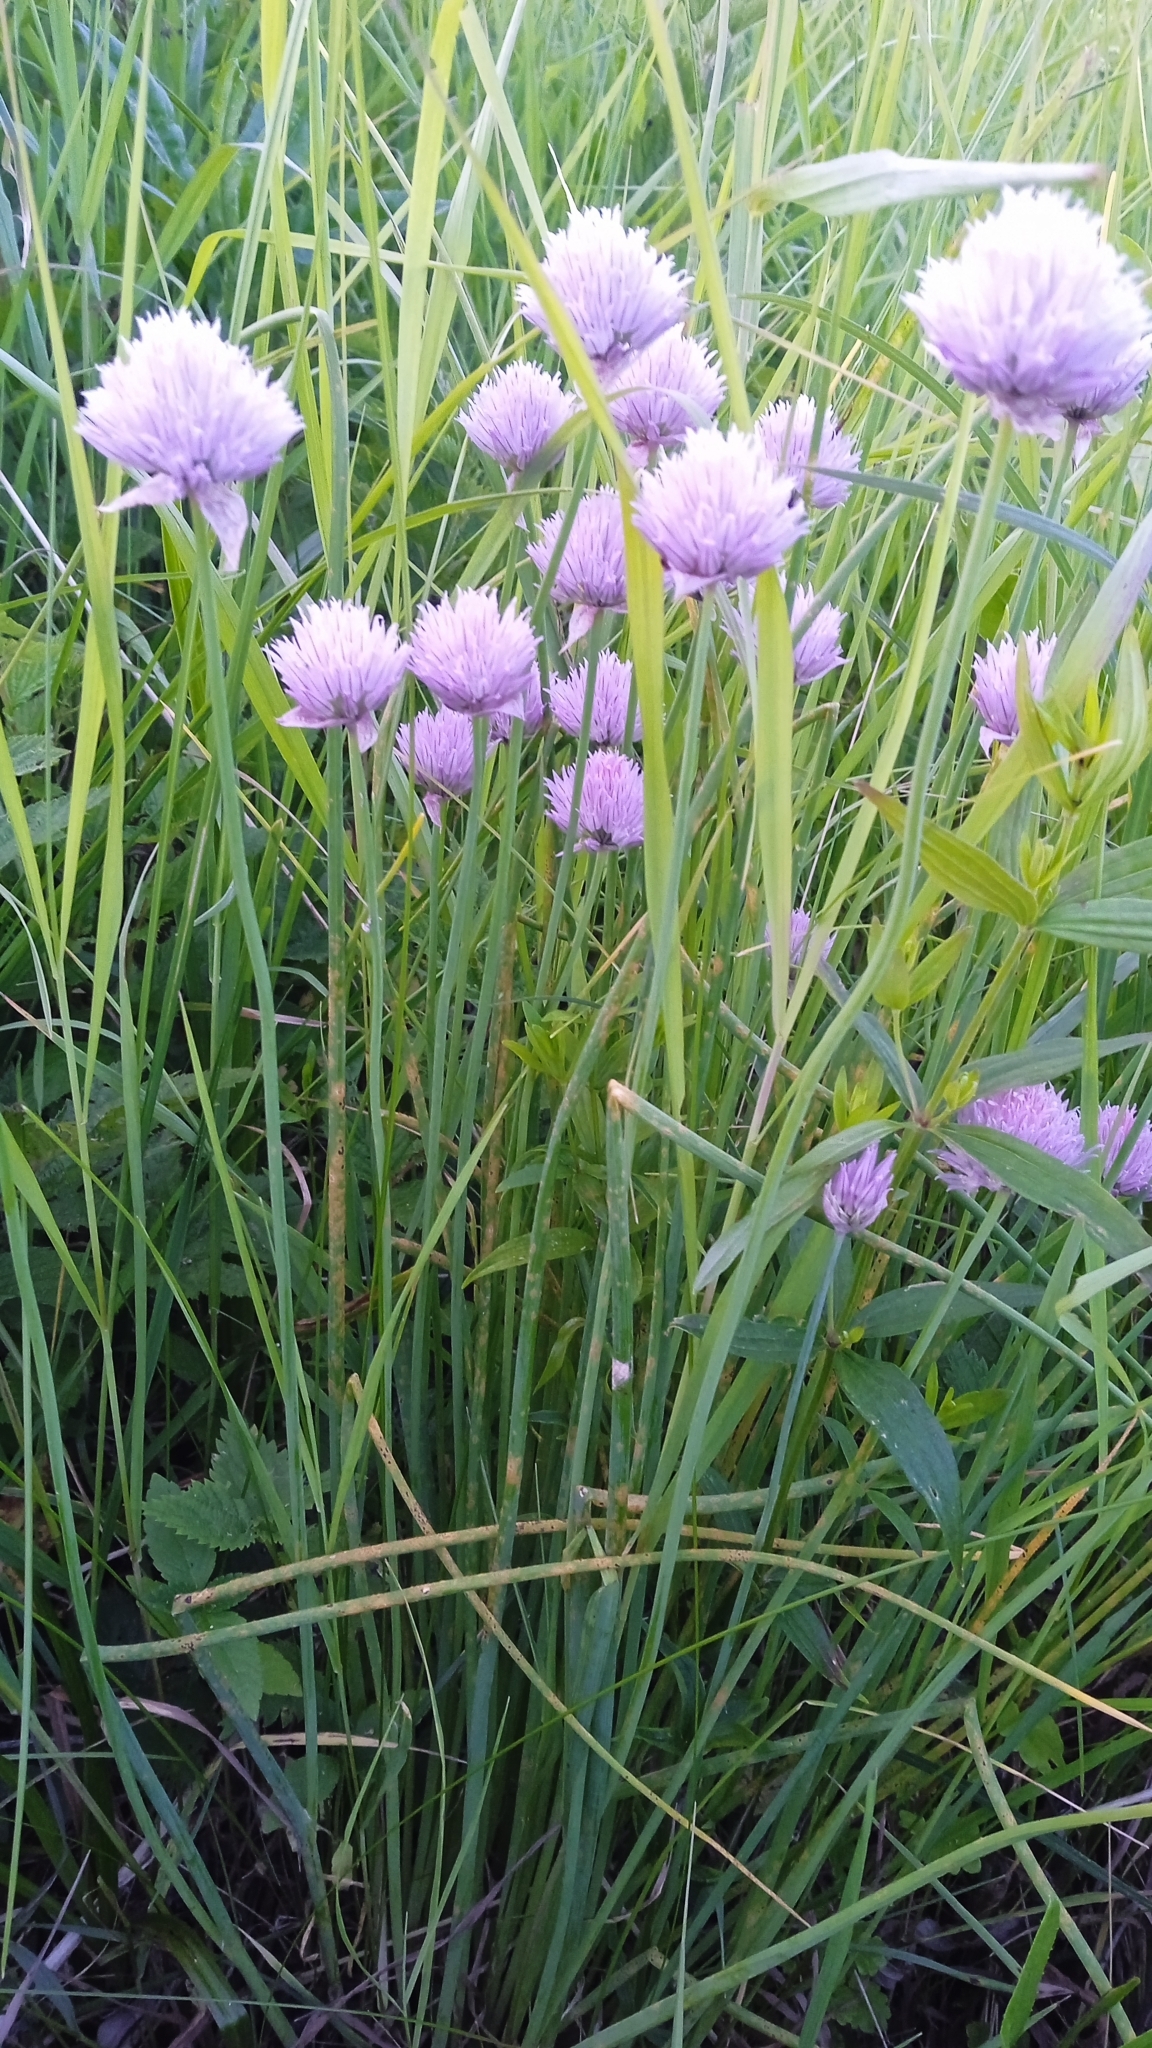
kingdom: Plantae
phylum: Tracheophyta
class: Liliopsida
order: Asparagales
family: Amaryllidaceae
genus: Allium
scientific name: Allium schoenoprasum
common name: Chives
